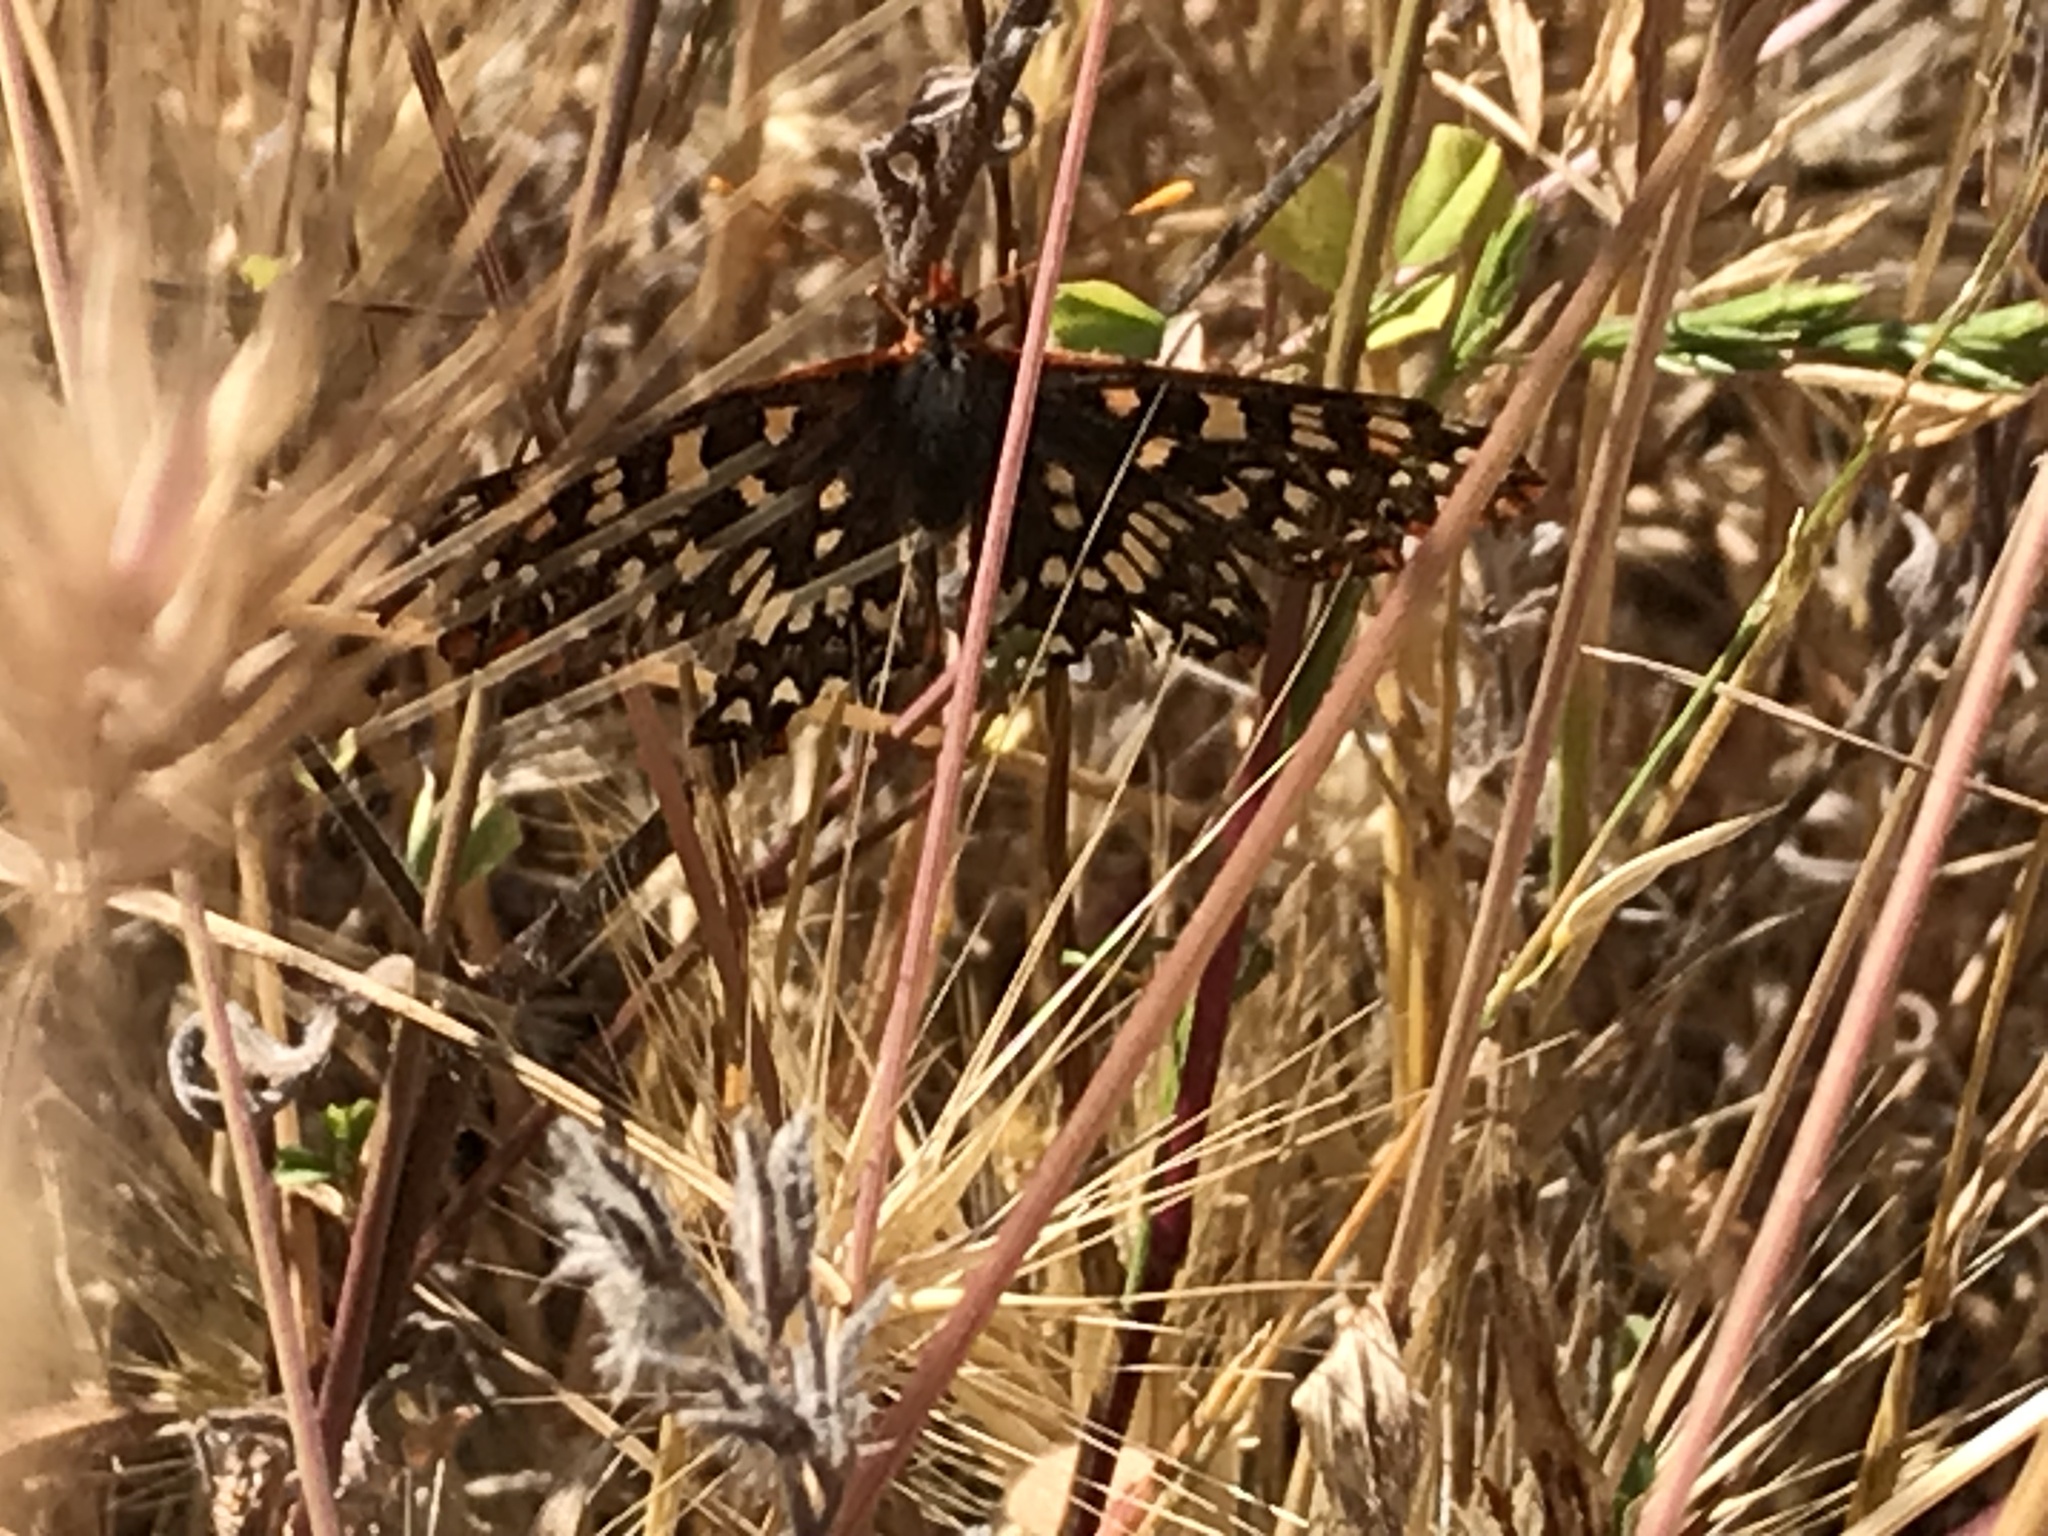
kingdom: Animalia
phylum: Arthropoda
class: Insecta
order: Lepidoptera
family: Nymphalidae
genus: Occidryas
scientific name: Occidryas chalcedona
